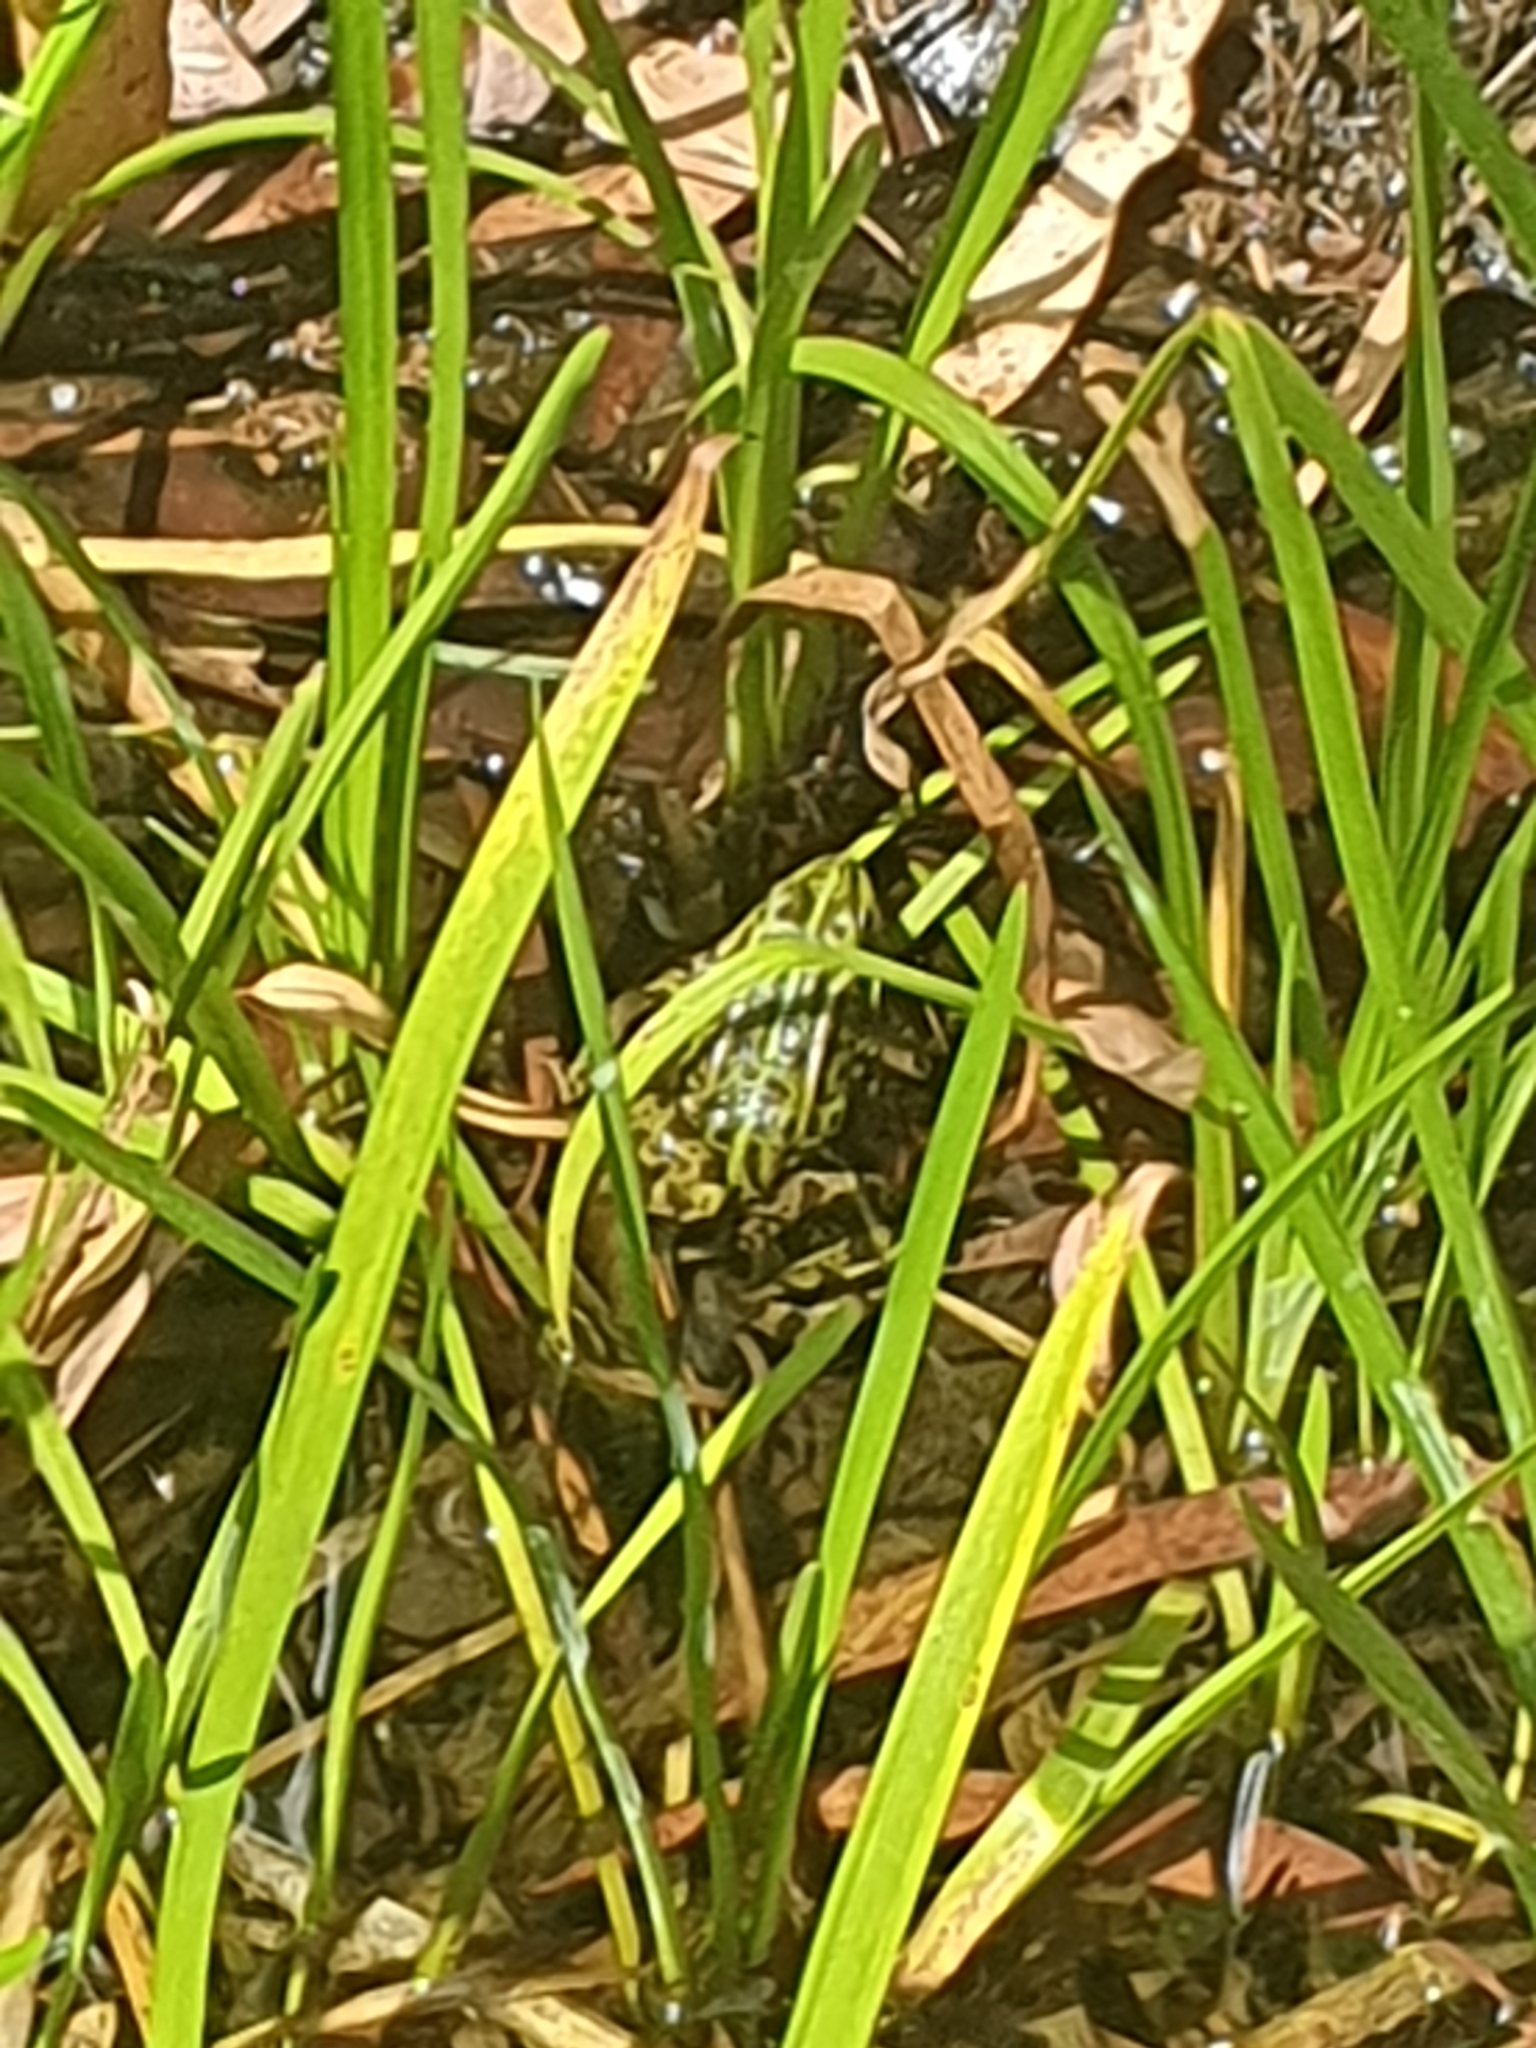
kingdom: Animalia
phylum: Chordata
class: Amphibia
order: Anura
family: Ranidae
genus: Pelophylax
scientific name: Pelophylax perezi
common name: Perez's frog
